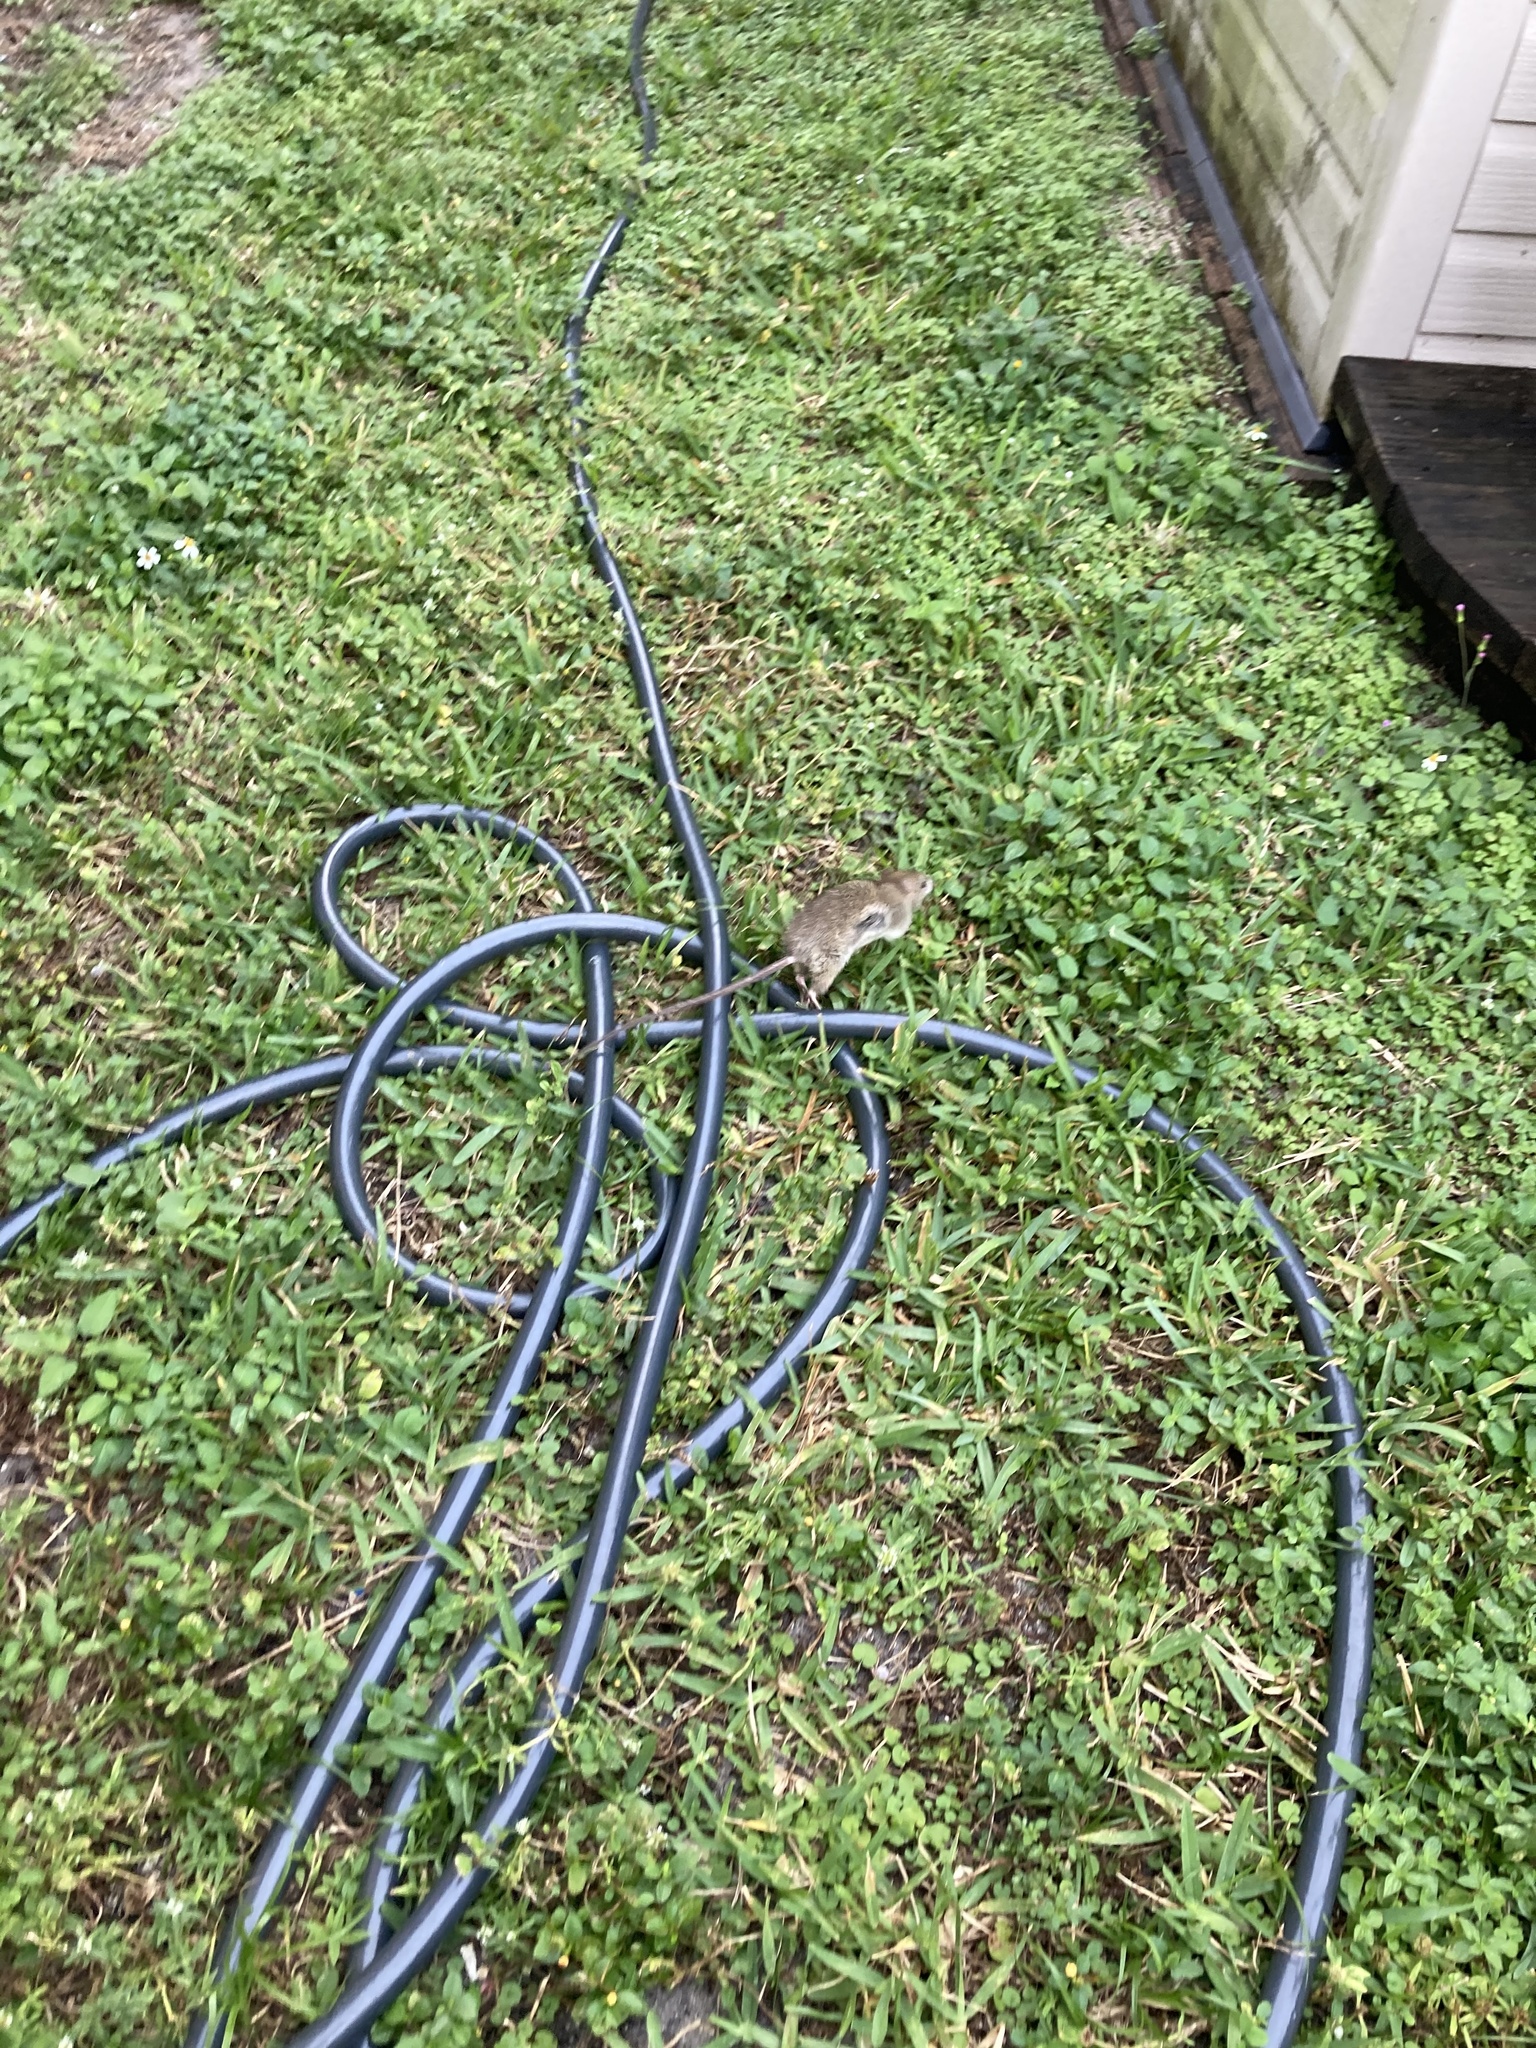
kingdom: Animalia
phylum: Chordata
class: Mammalia
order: Rodentia
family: Muridae
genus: Rattus
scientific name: Rattus rattus
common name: Black rat
